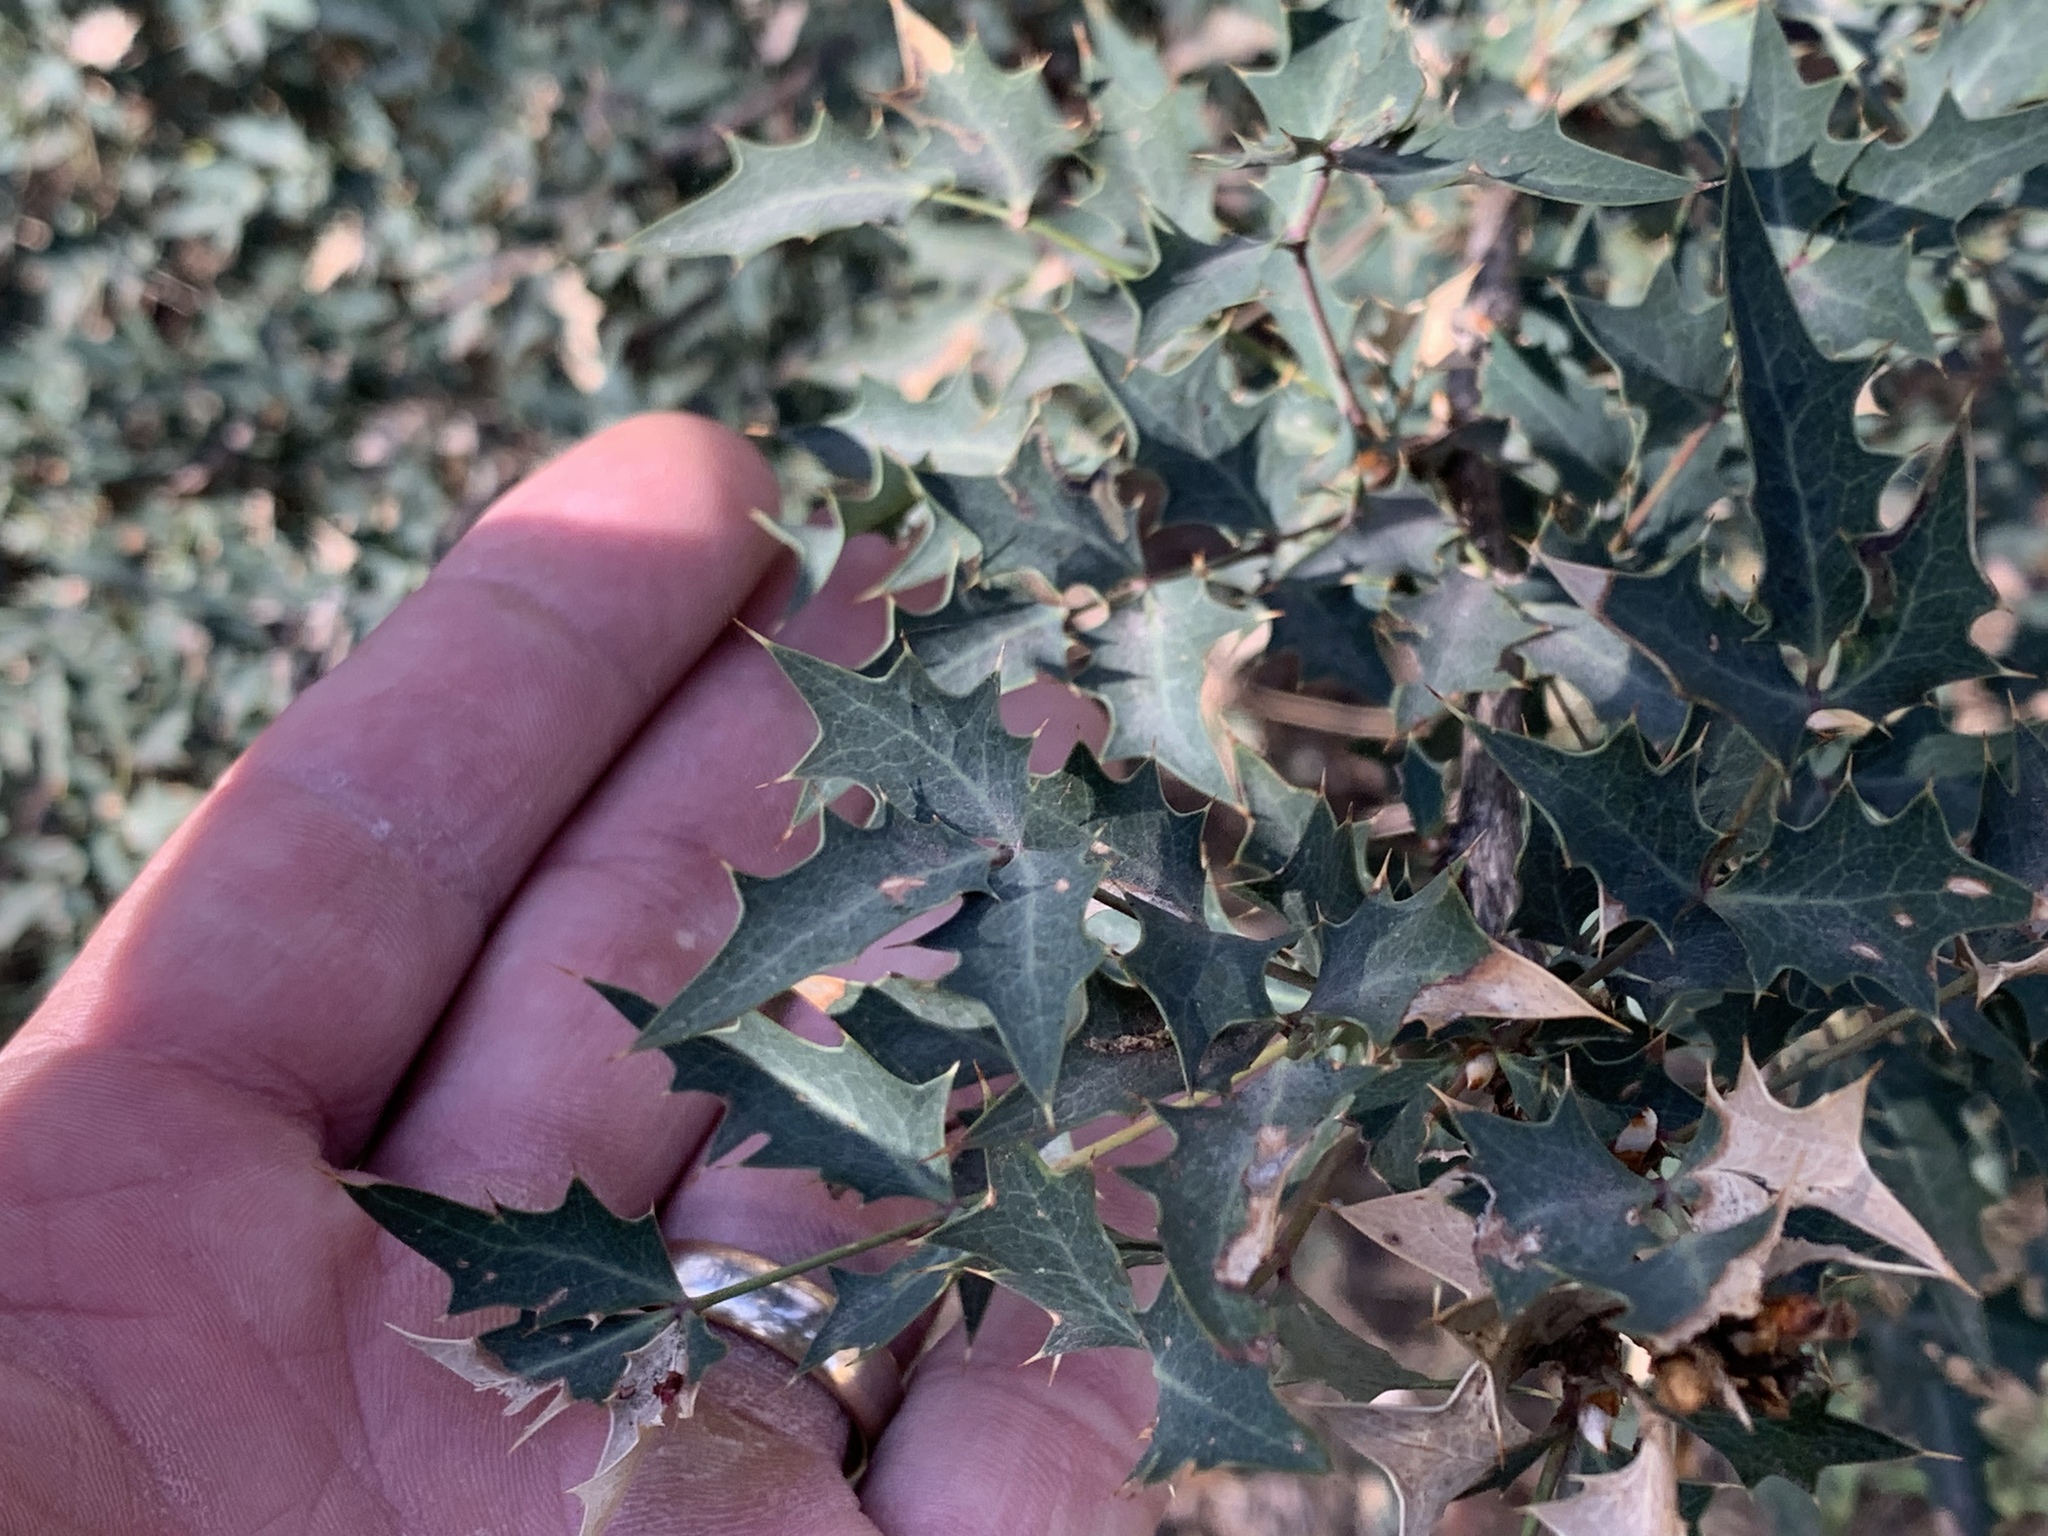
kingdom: Plantae
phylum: Tracheophyta
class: Magnoliopsida
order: Ranunculales
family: Berberidaceae
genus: Alloberberis
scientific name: Alloberberis haematocarpa
